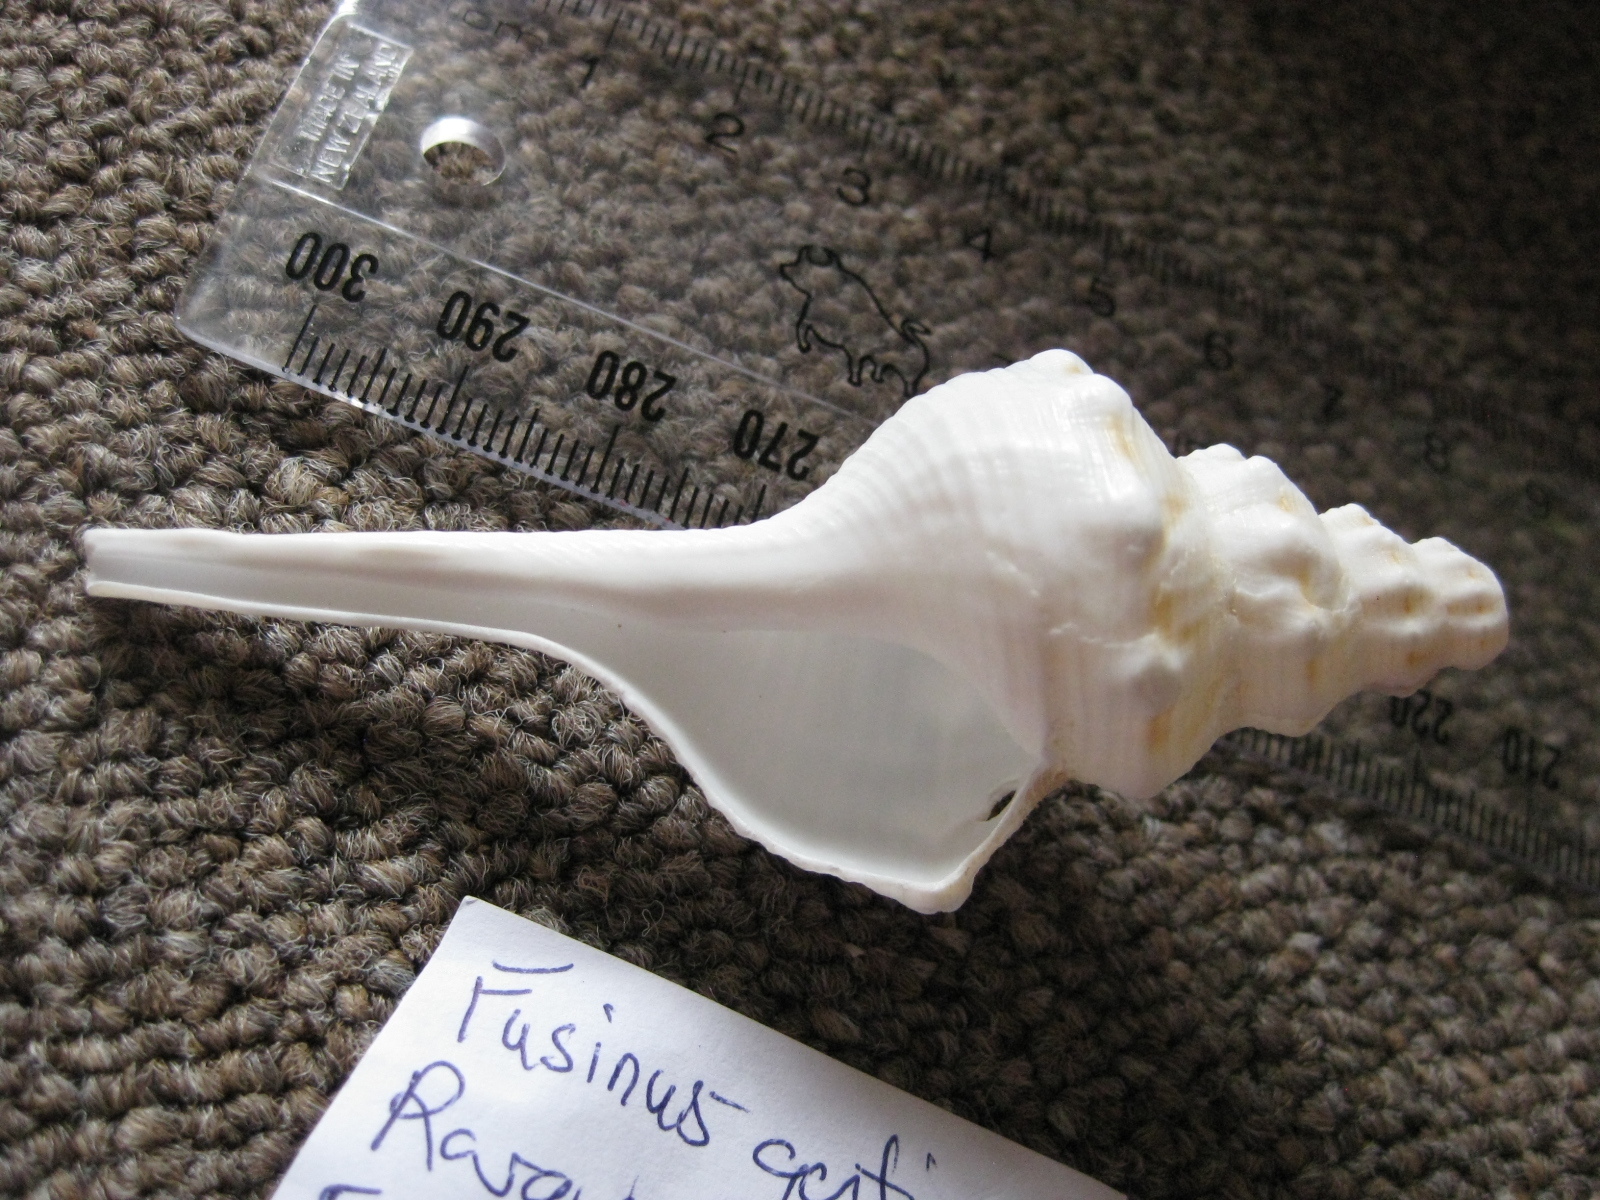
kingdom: Animalia
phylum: Mollusca
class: Gastropoda
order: Neogastropoda
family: Fasciolariidae
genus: Cyrtulus
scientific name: Cyrtulus genticus
